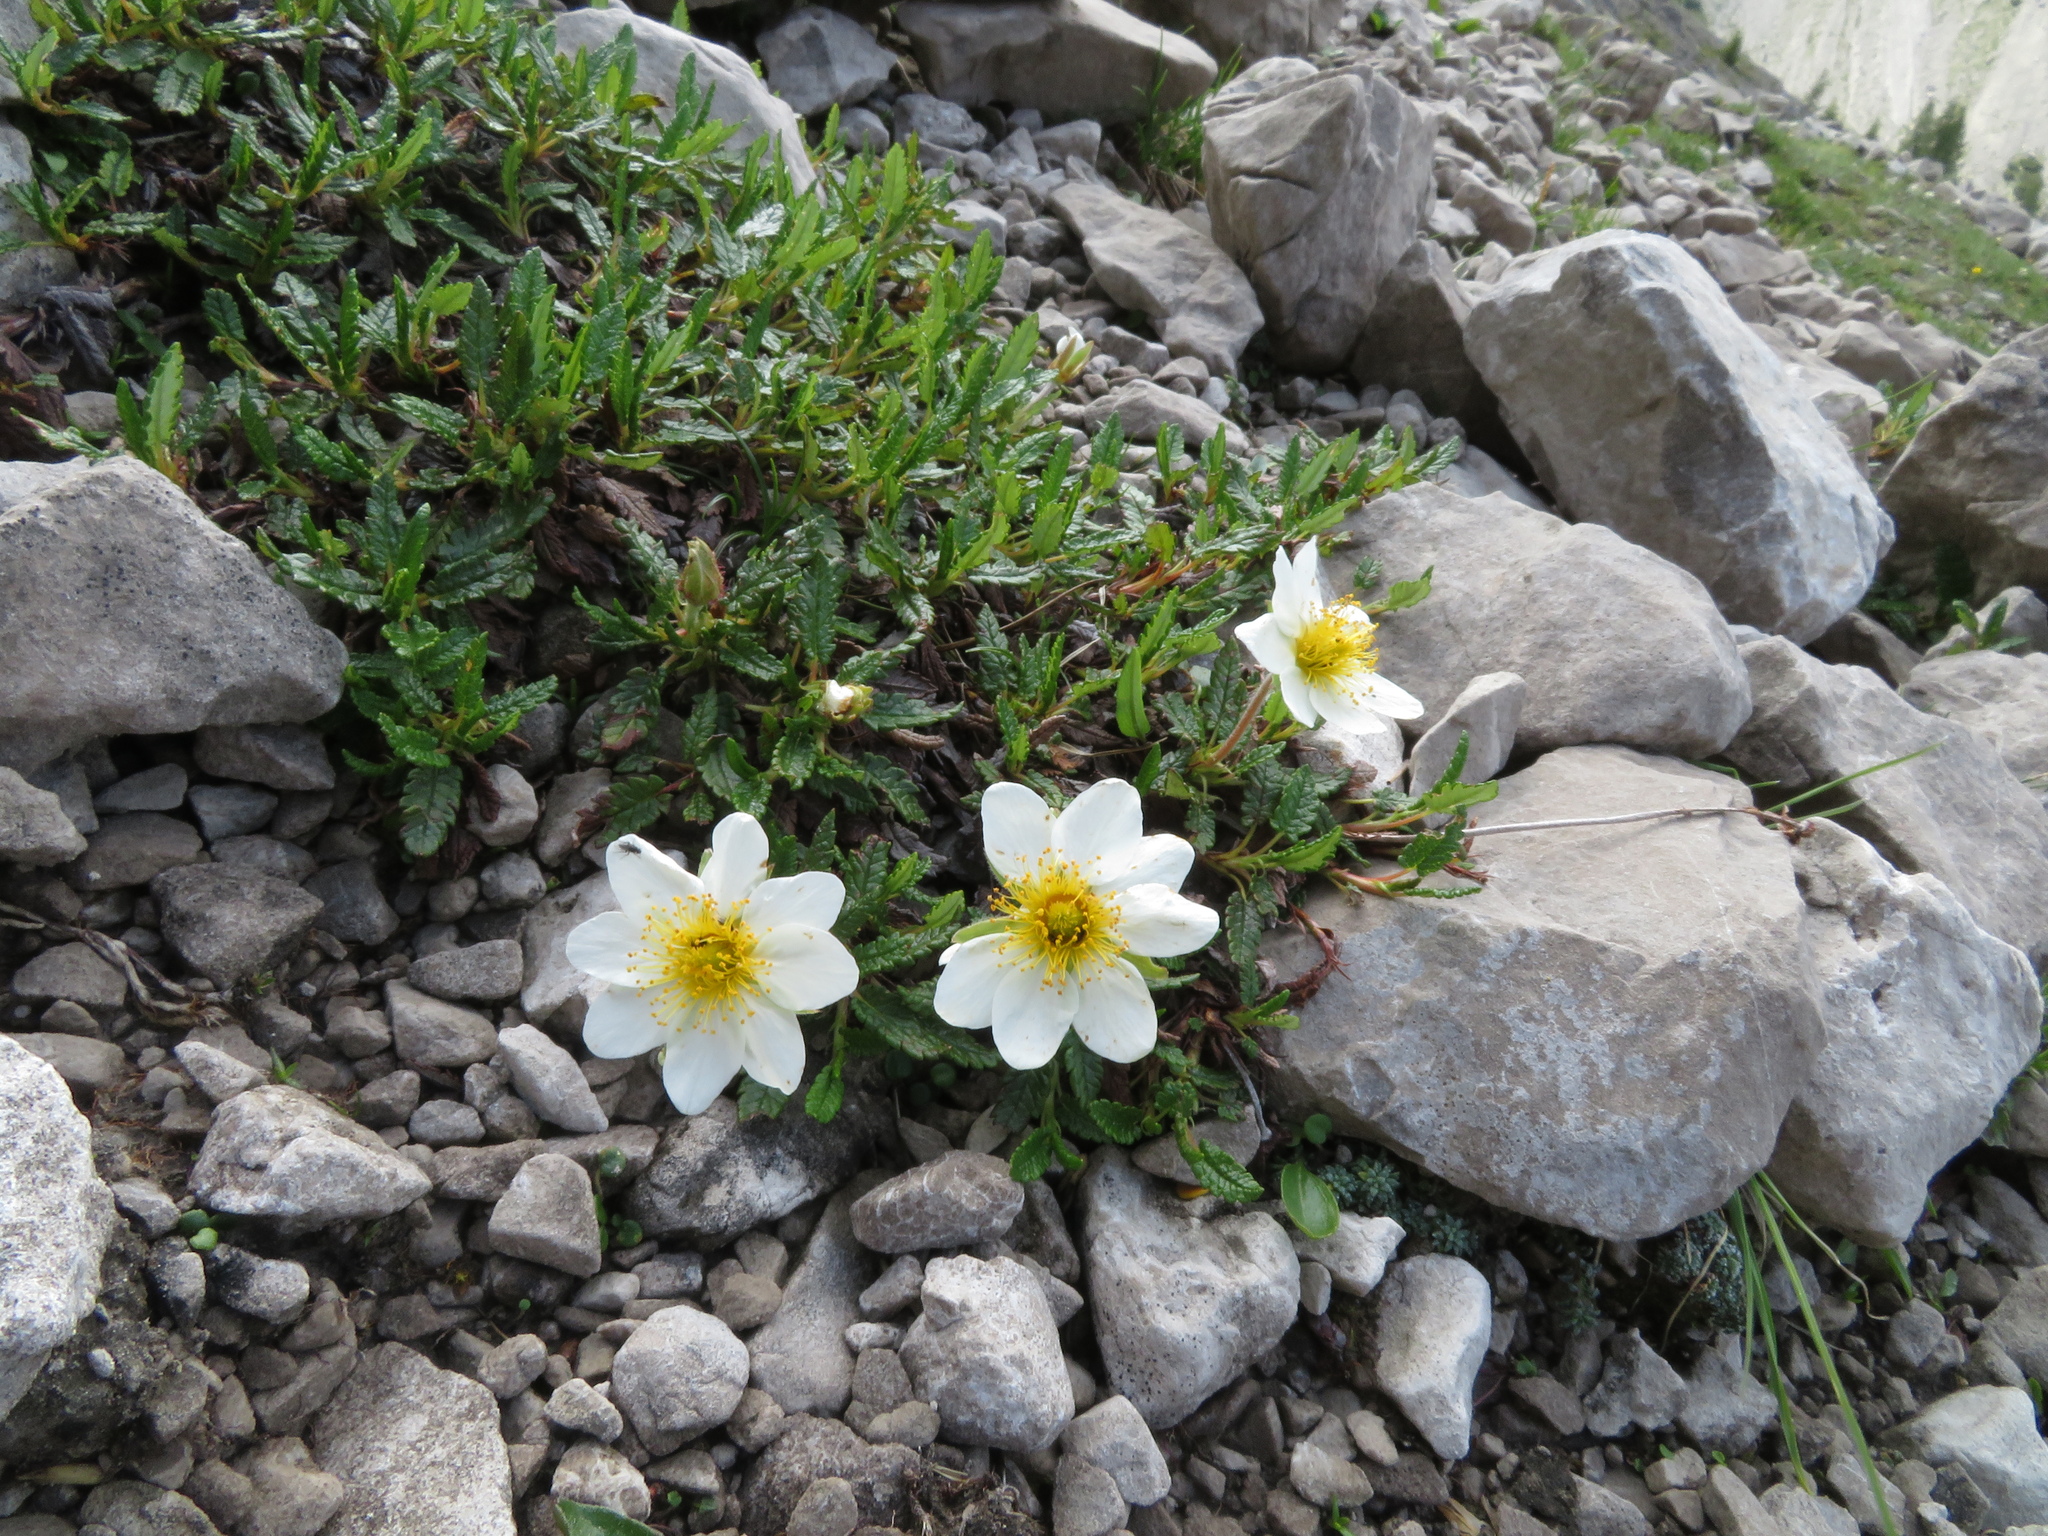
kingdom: Plantae
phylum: Tracheophyta
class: Magnoliopsida
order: Rosales
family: Rosaceae
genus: Dryas
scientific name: Dryas octopetala
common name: Eight-petal mountain-avens
